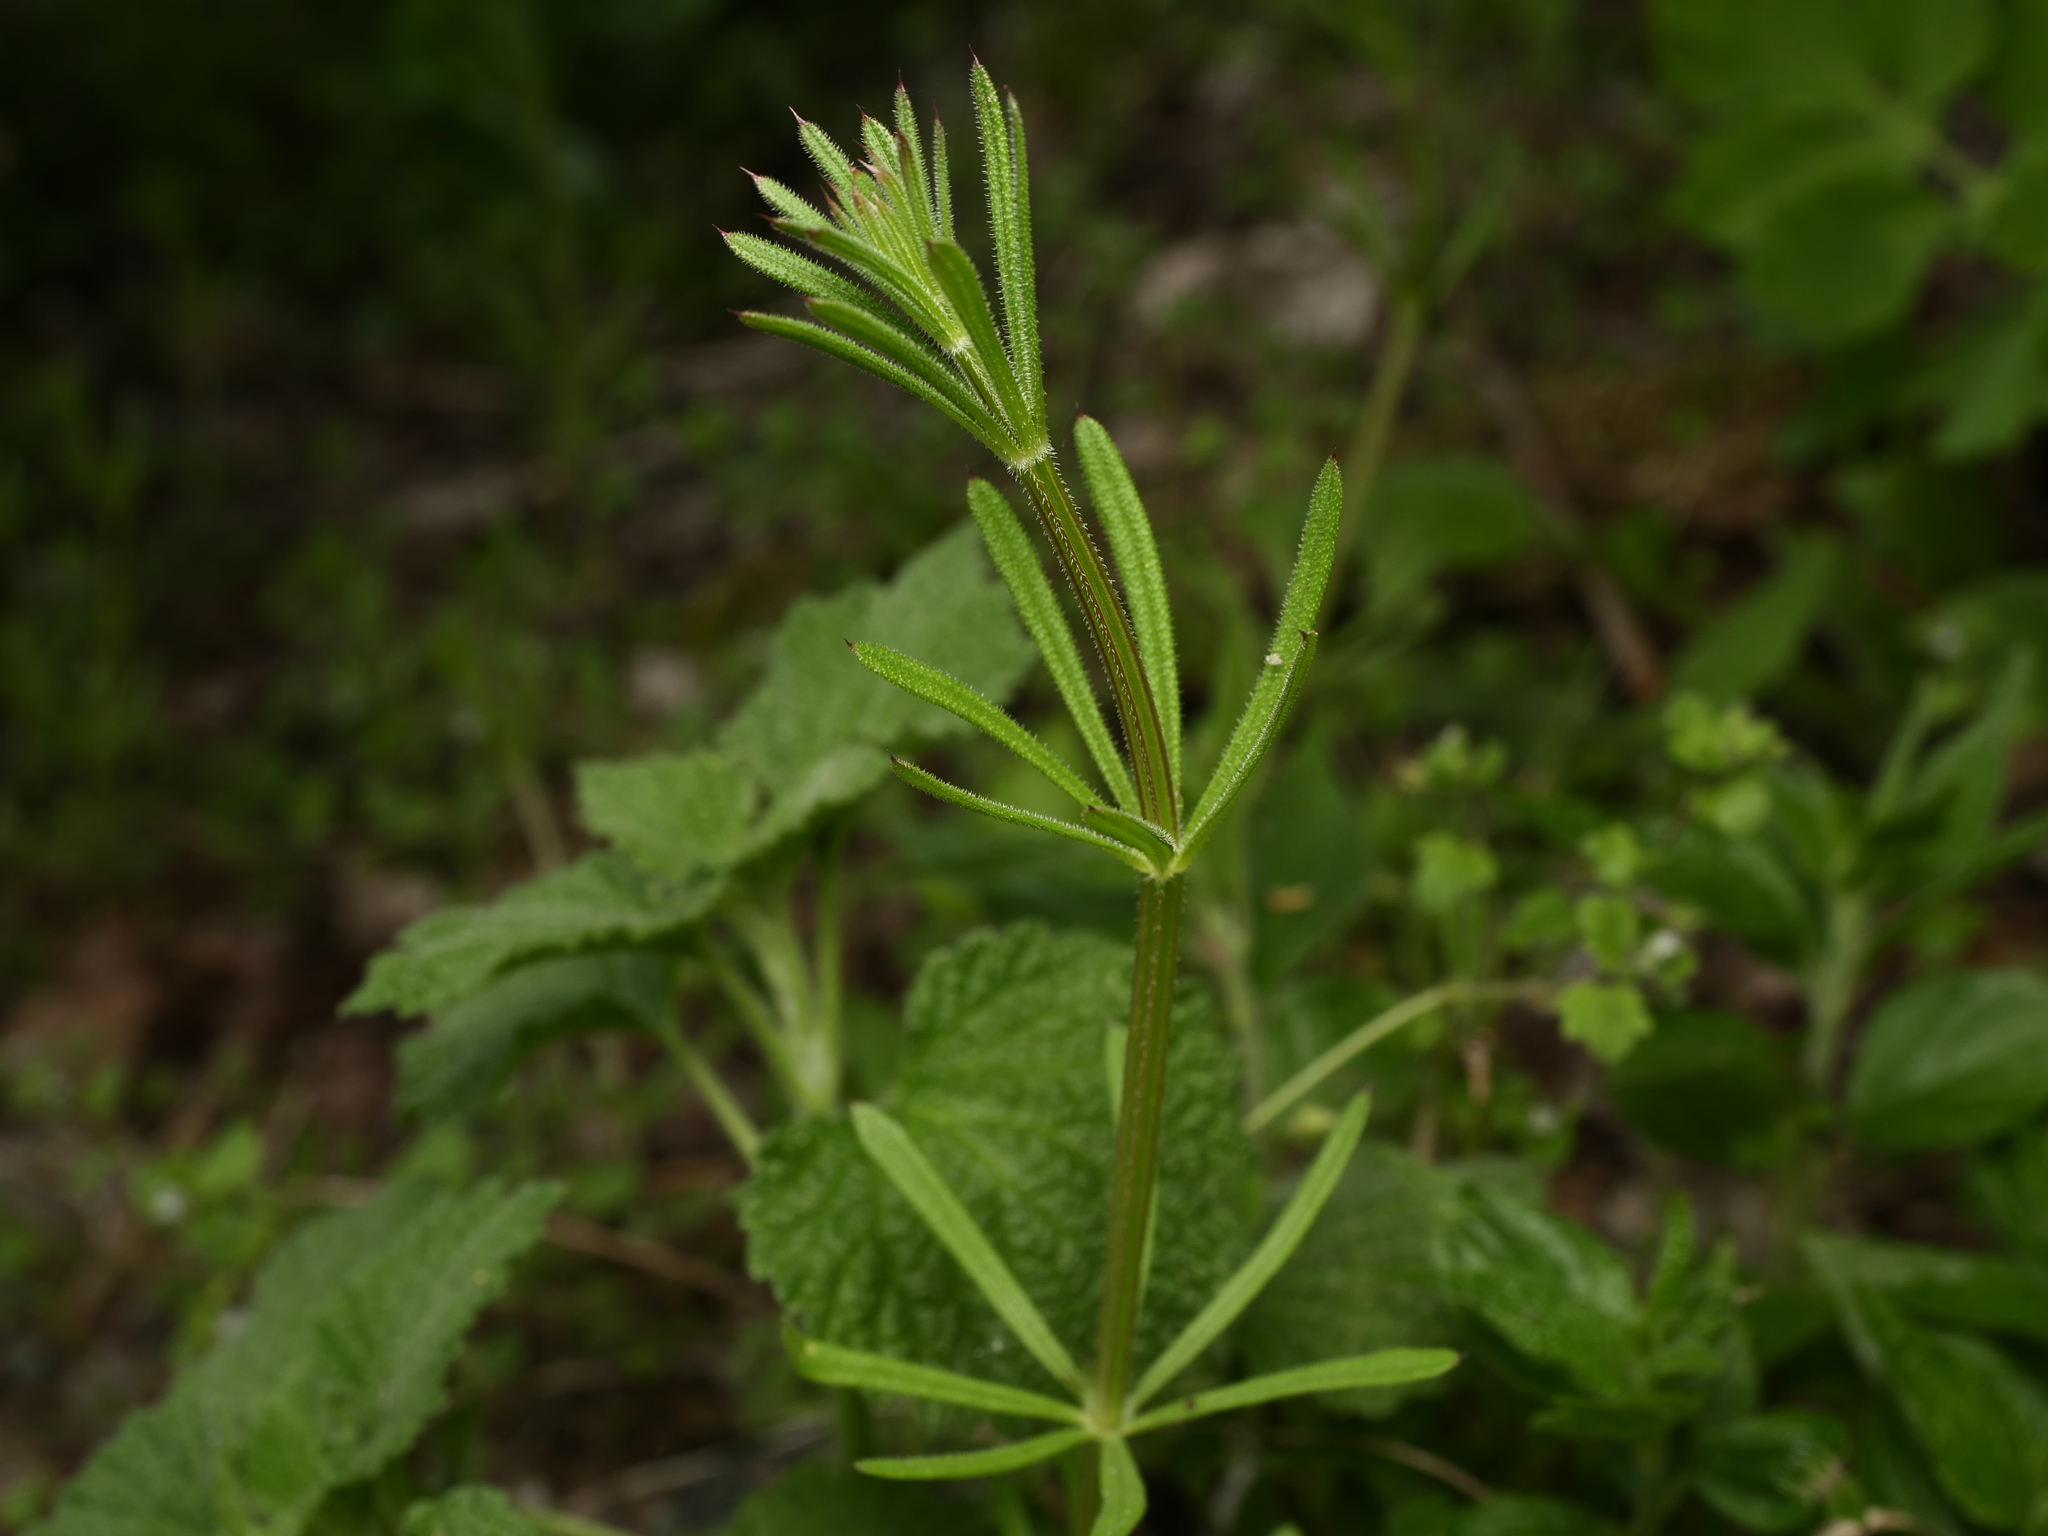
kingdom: Plantae
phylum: Tracheophyta
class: Magnoliopsida
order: Gentianales
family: Rubiaceae
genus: Galium
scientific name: Galium aparine
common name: Cleavers
